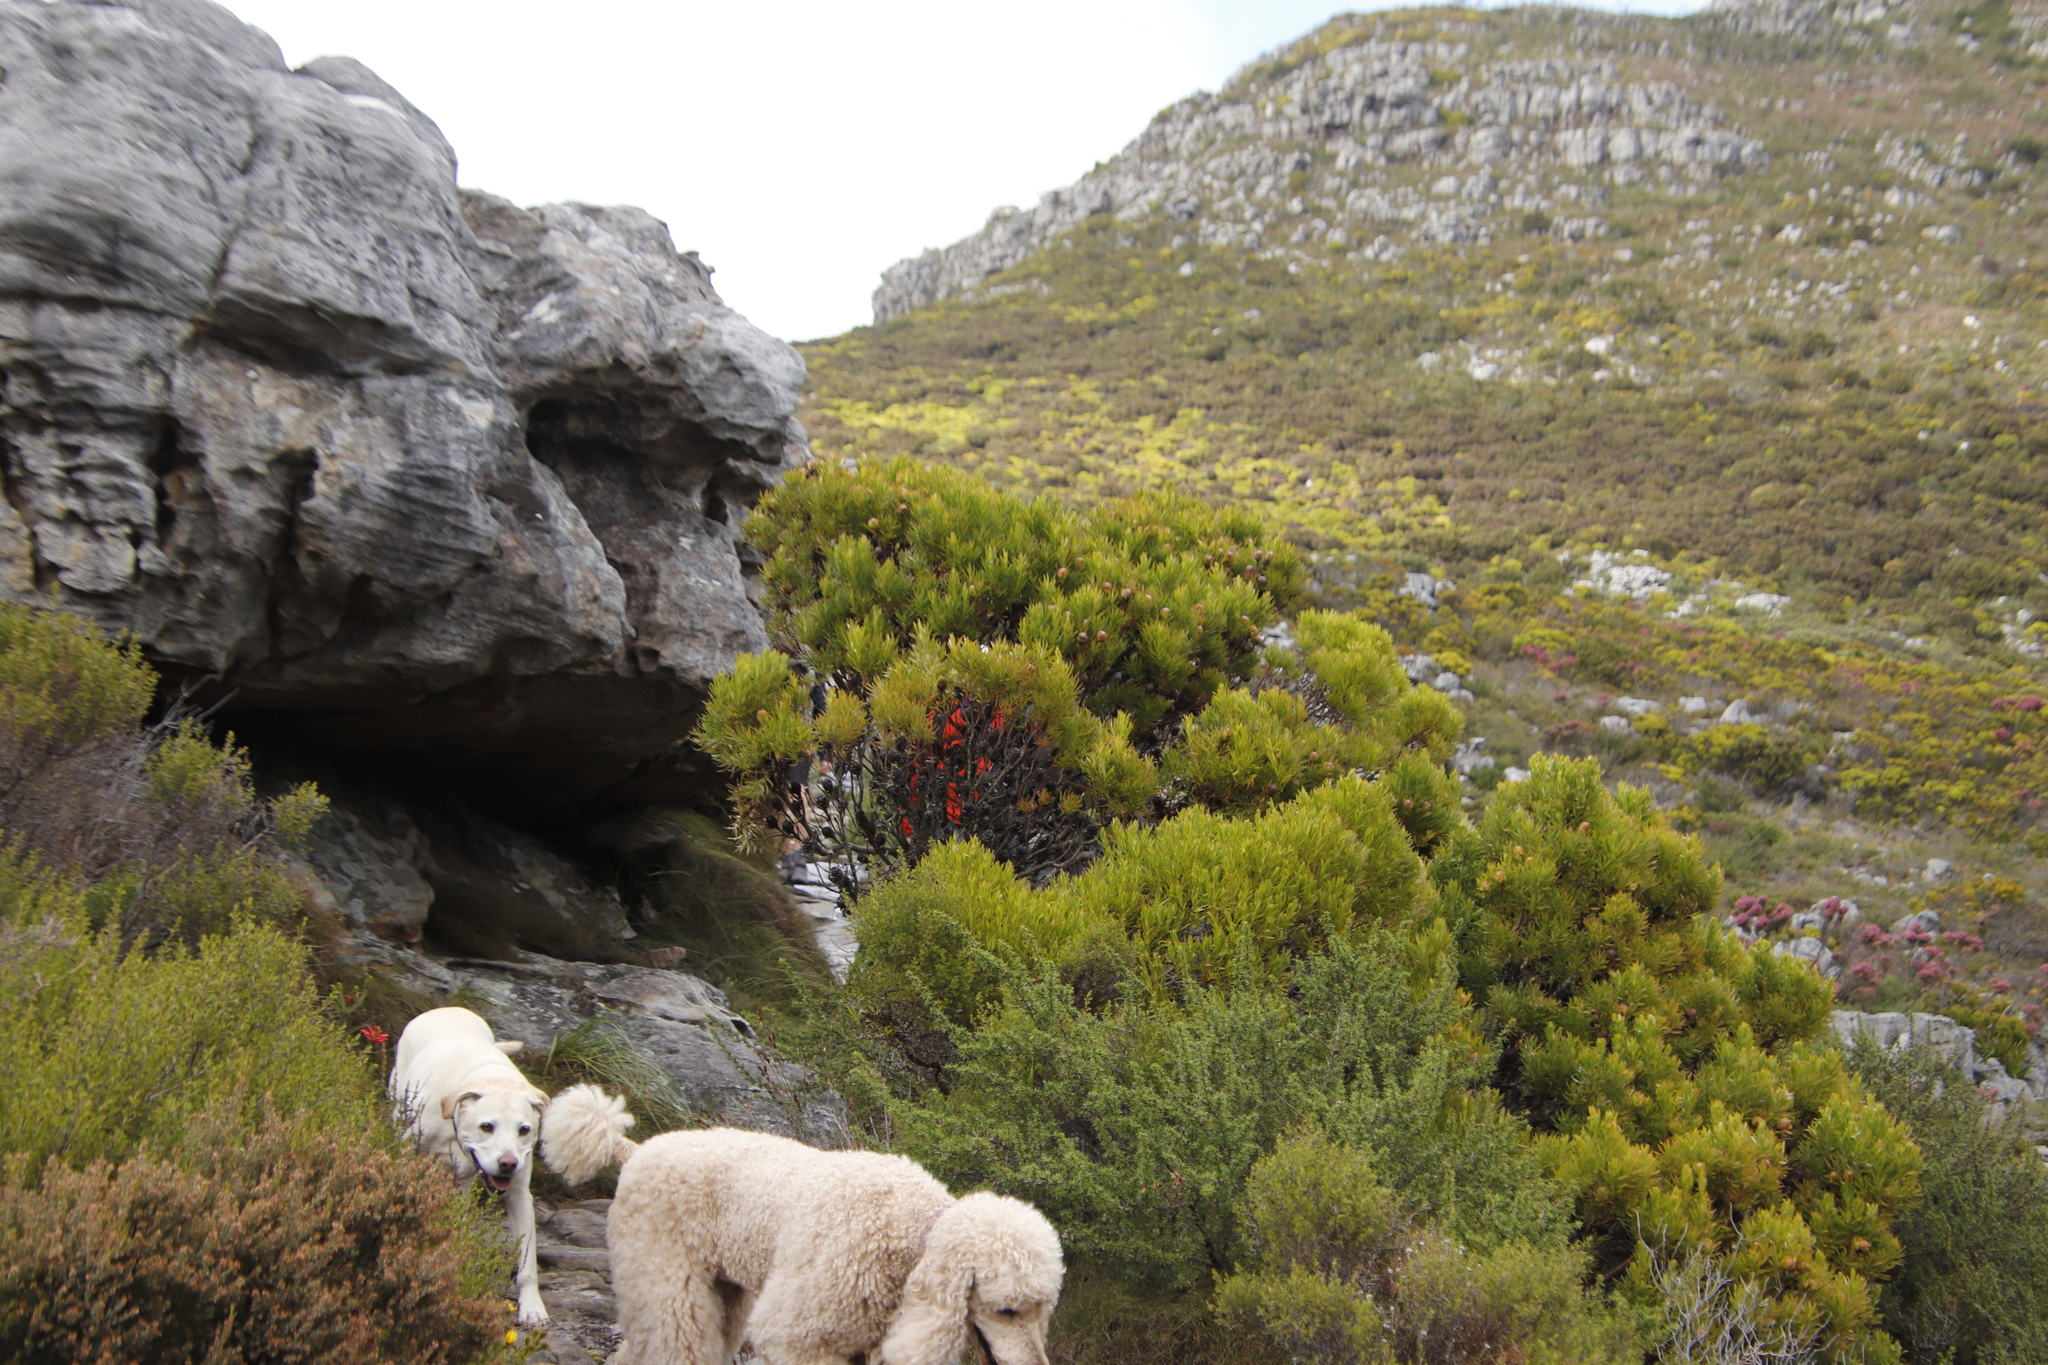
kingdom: Plantae
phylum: Tracheophyta
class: Magnoliopsida
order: Proteales
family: Proteaceae
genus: Leucadendron
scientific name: Leucadendron xanthoconus
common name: Sickle-leaf conebush
